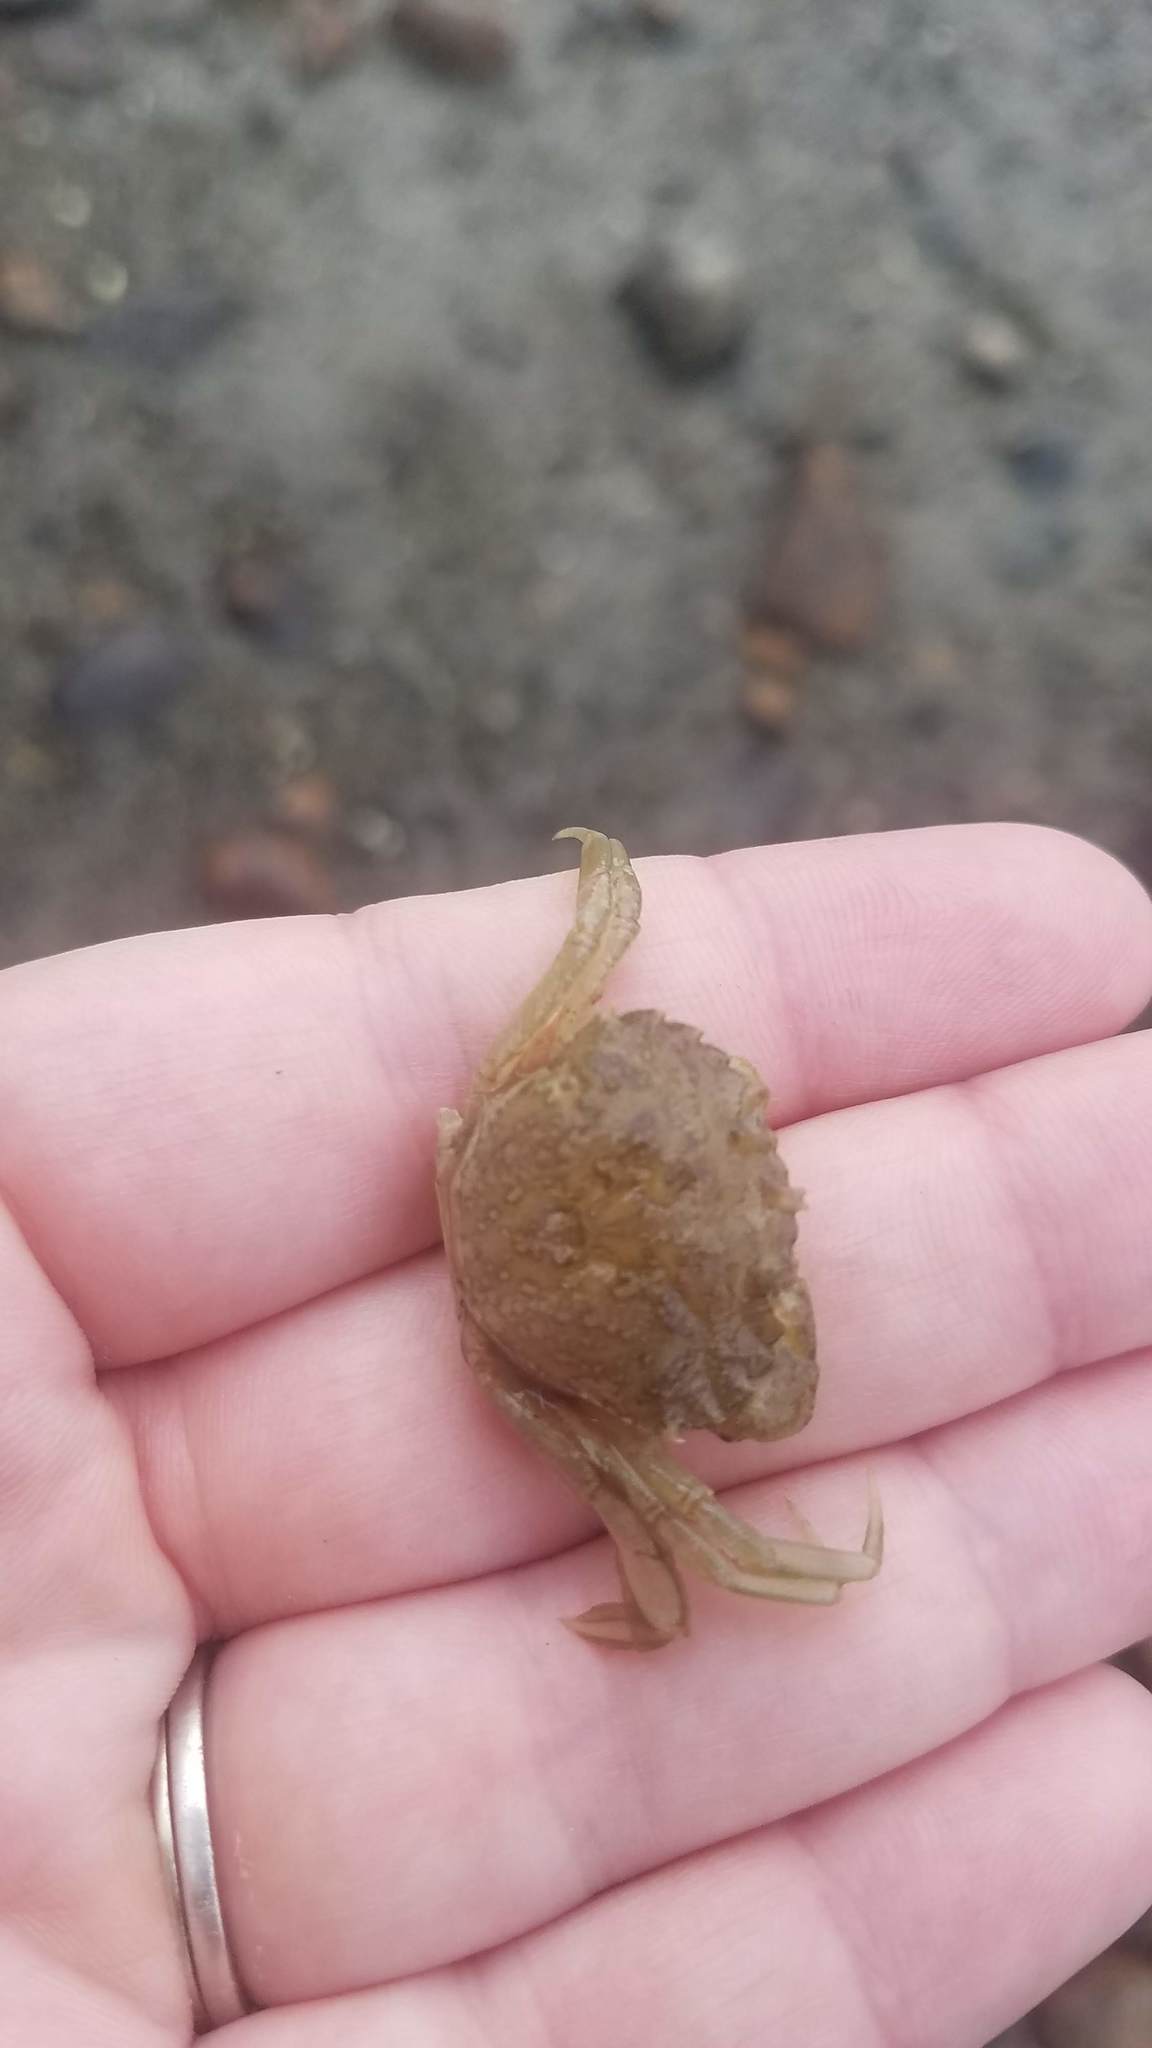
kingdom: Animalia
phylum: Arthropoda
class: Malacostraca
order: Decapoda
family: Carcinidae
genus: Carcinus
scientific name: Carcinus maenas
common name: European green crab
